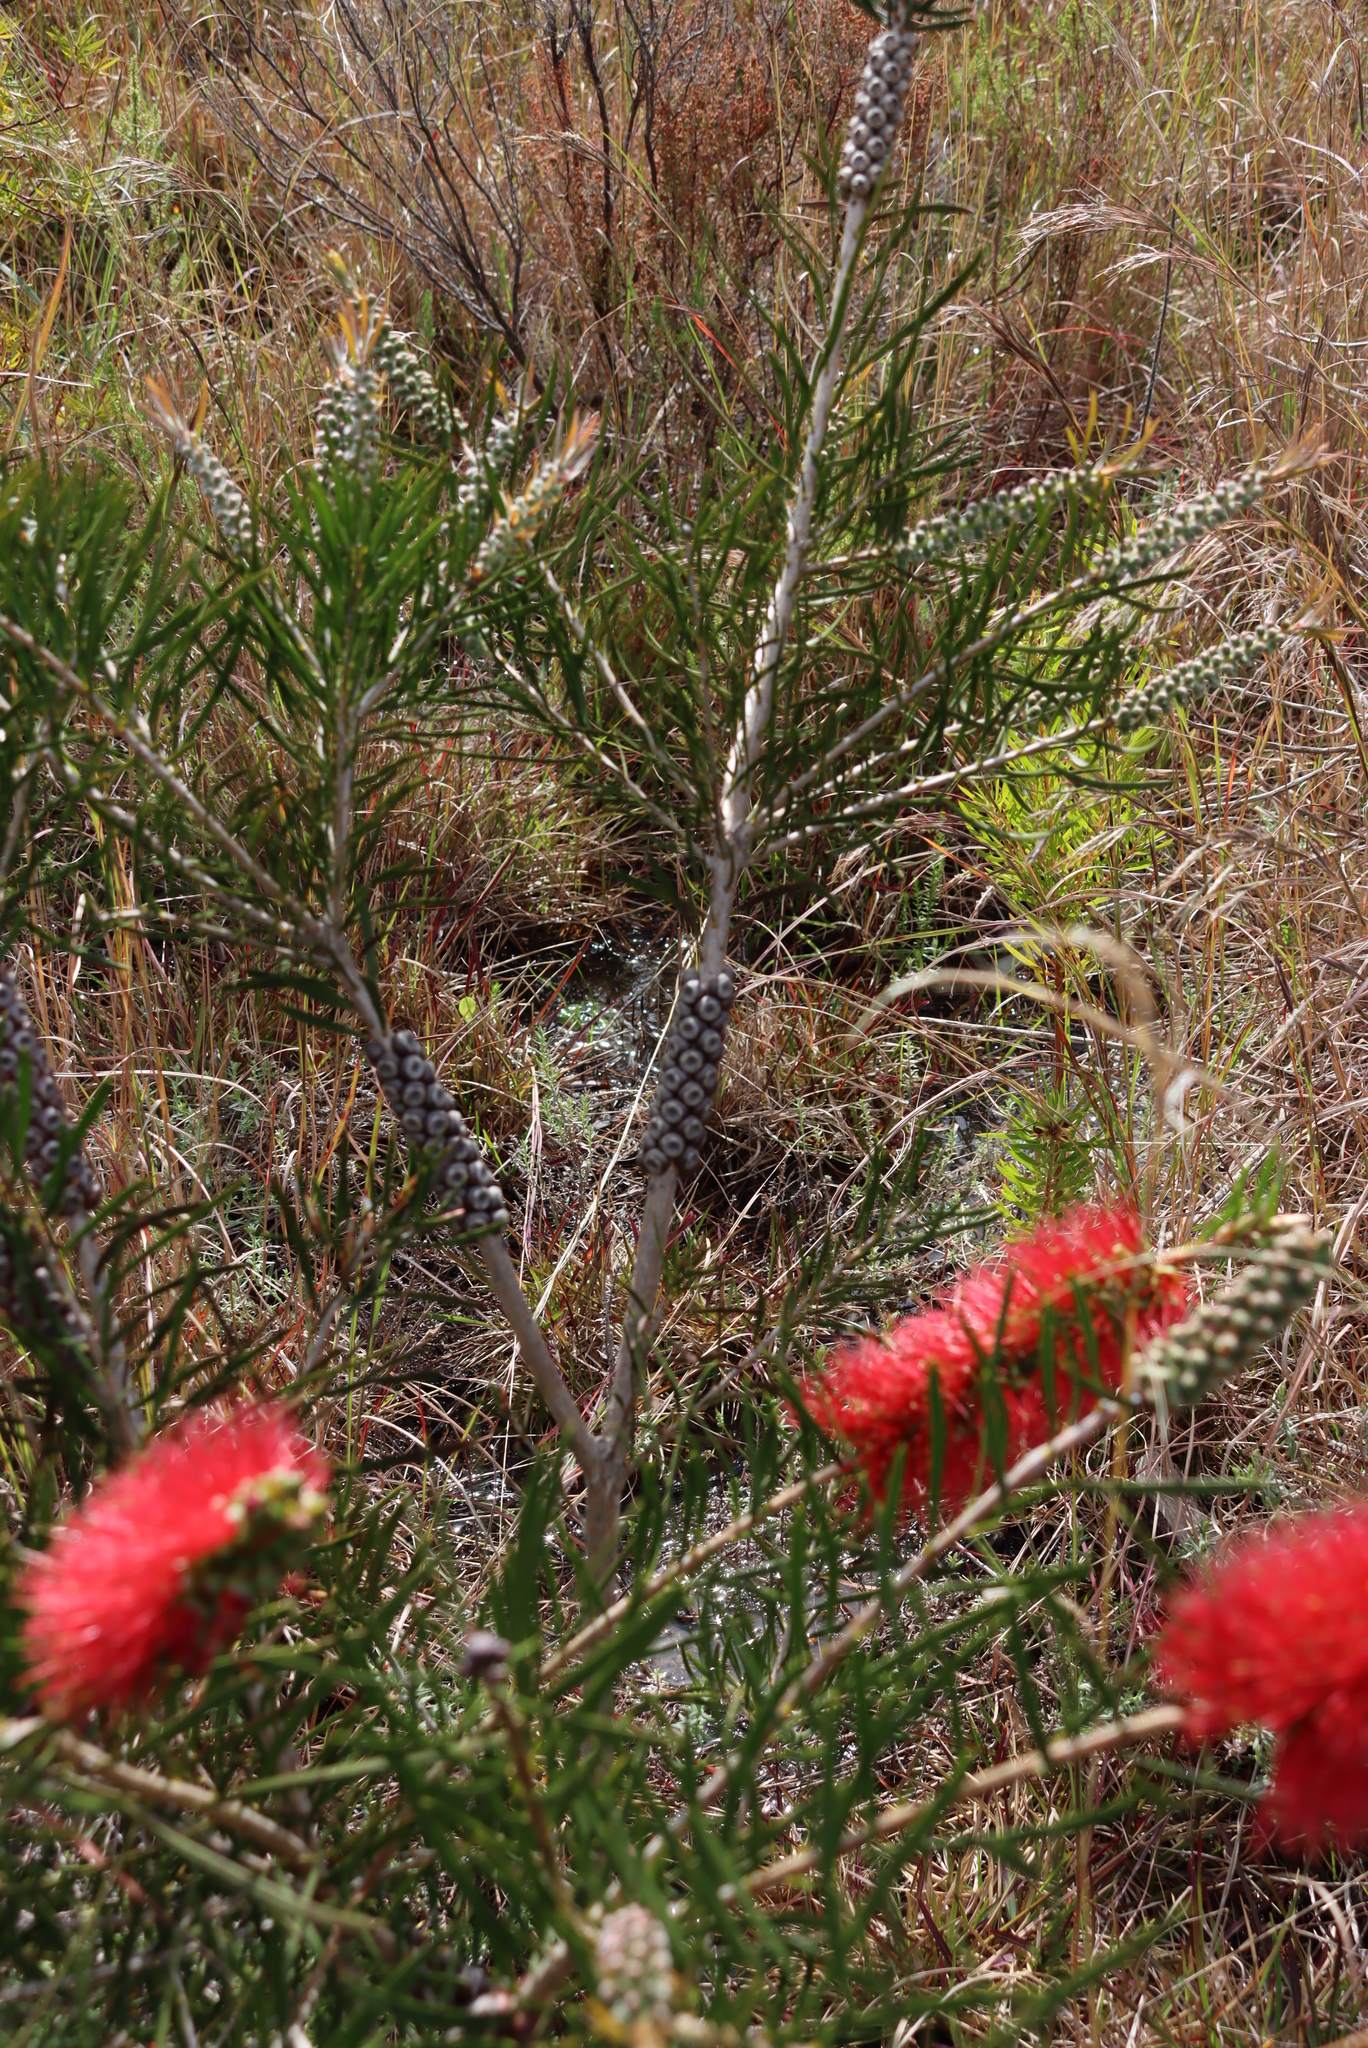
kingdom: Plantae
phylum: Tracheophyta
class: Magnoliopsida
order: Myrtales
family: Myrtaceae
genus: Callistemon
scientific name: Callistemon linearis
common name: Narrow-leaf bottlebrush
